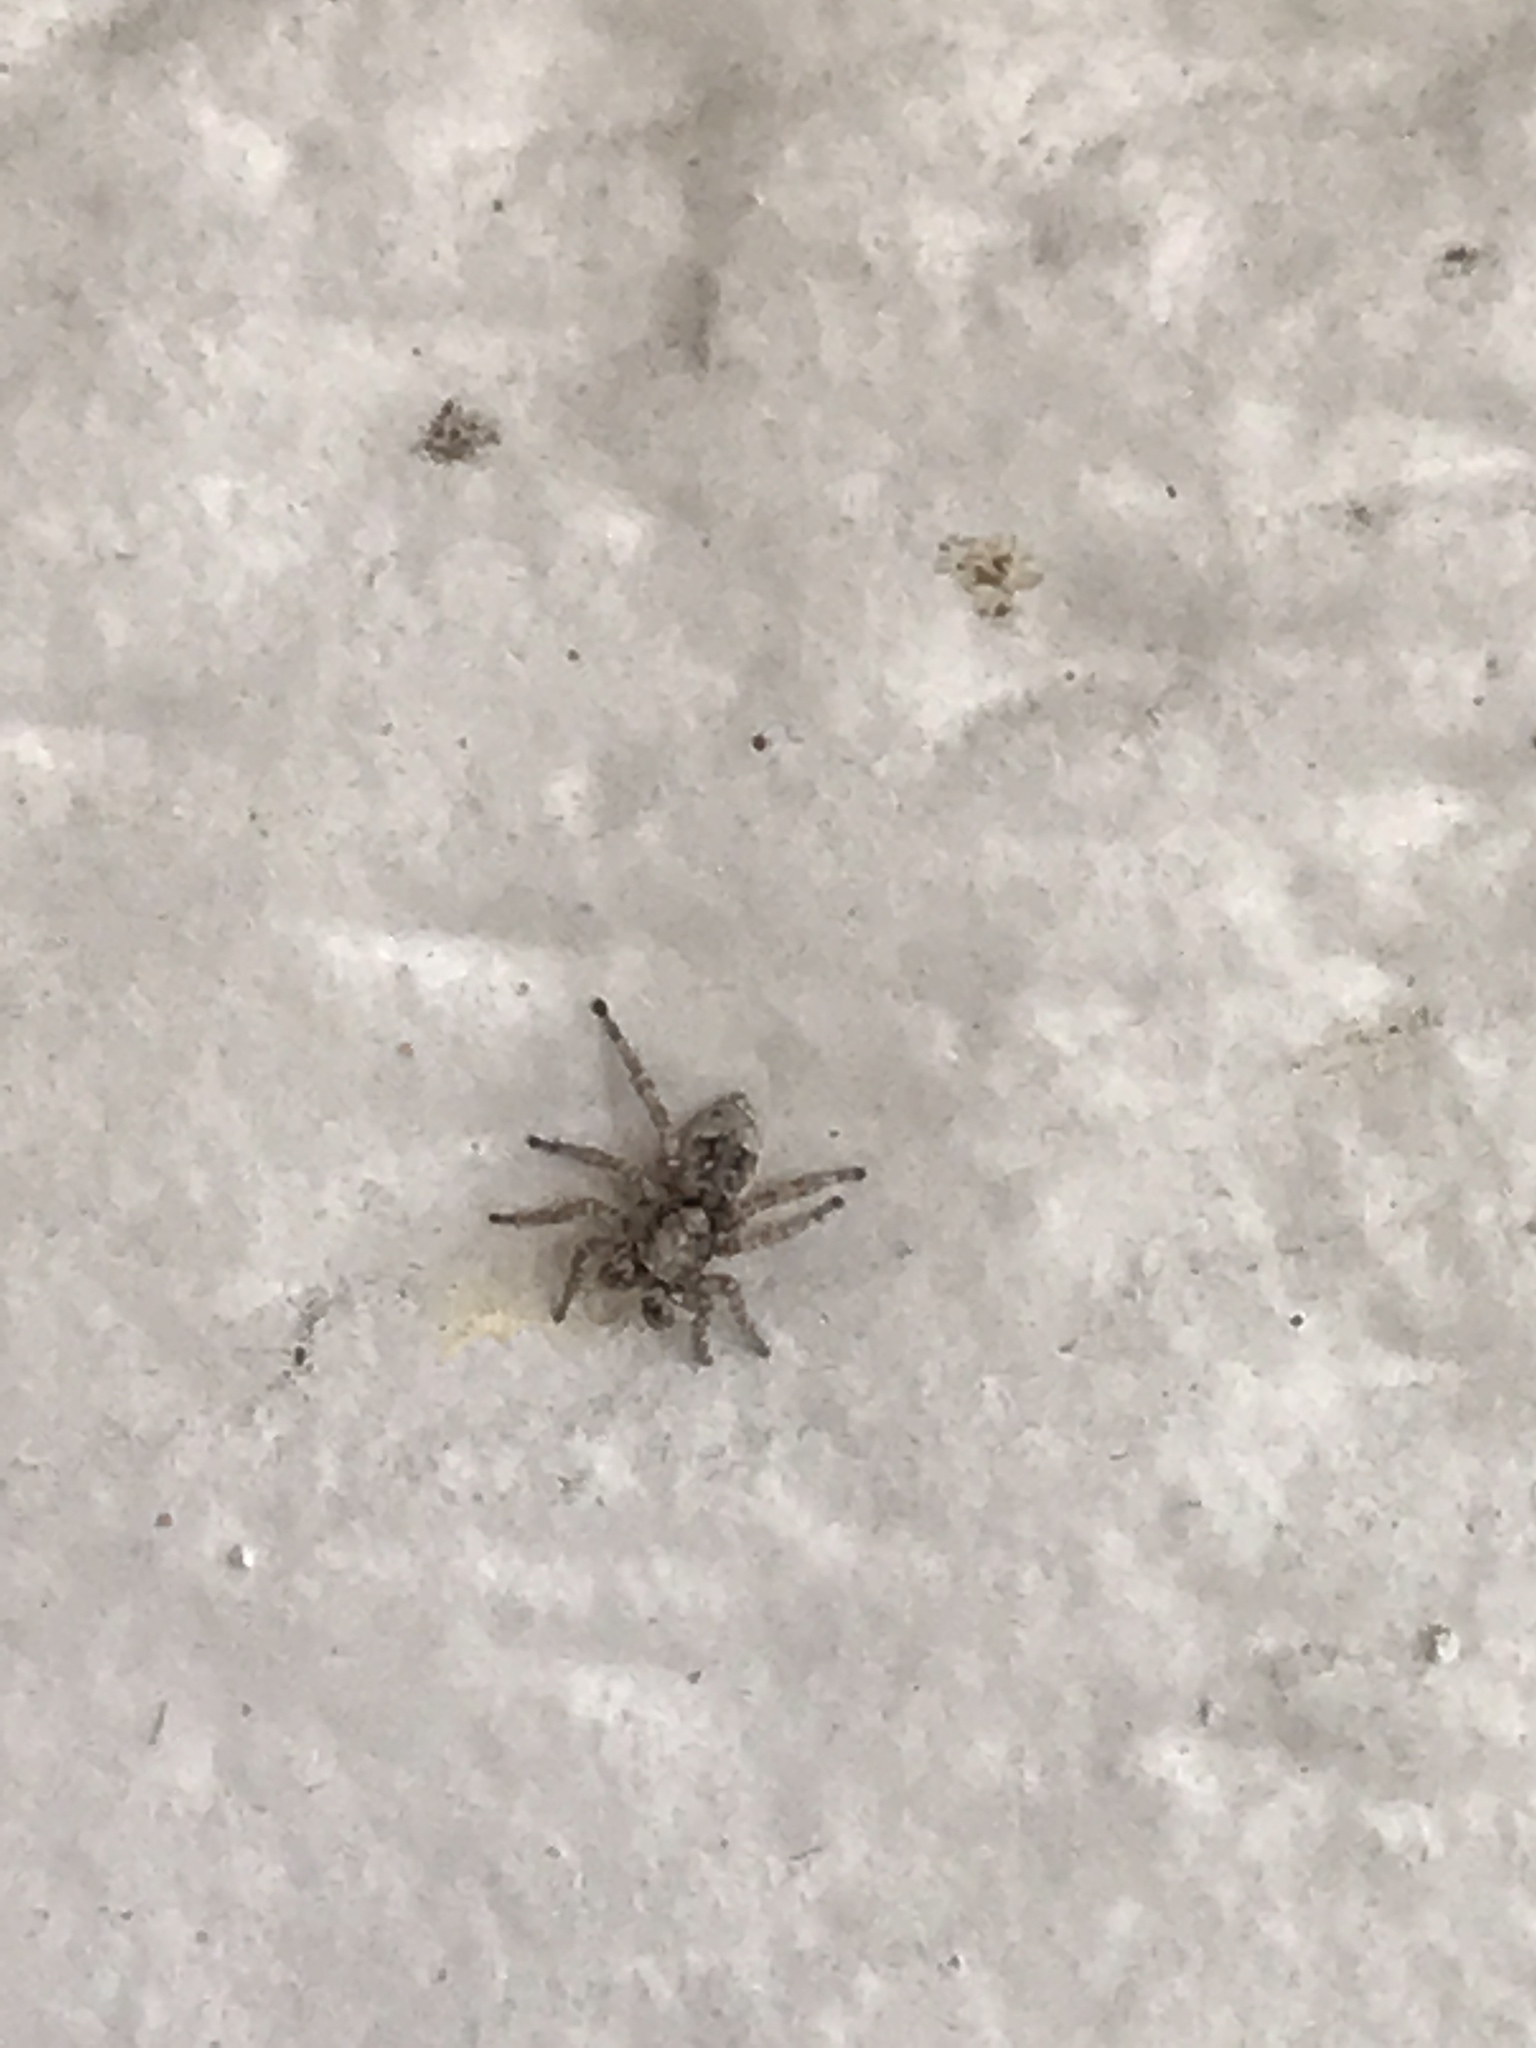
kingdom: Animalia
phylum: Arthropoda
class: Arachnida
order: Araneae
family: Salticidae
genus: Attulus
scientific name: Attulus fasciger
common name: Asiatic wall jumping spider
